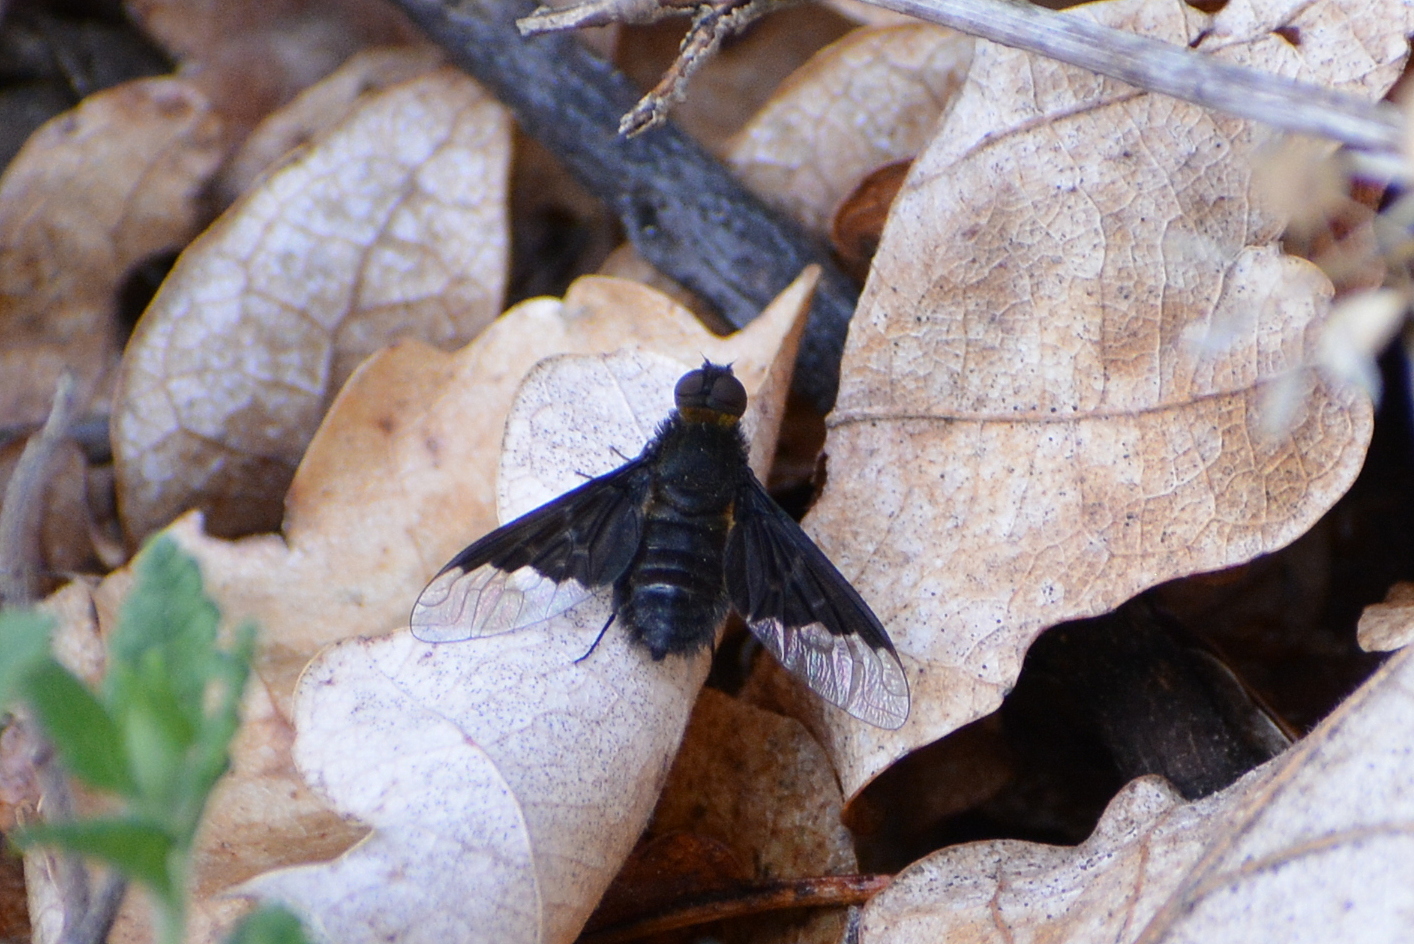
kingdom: Animalia
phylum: Arthropoda
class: Insecta
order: Diptera
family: Bombyliidae
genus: Hemipenthes
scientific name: Hemipenthes morio
